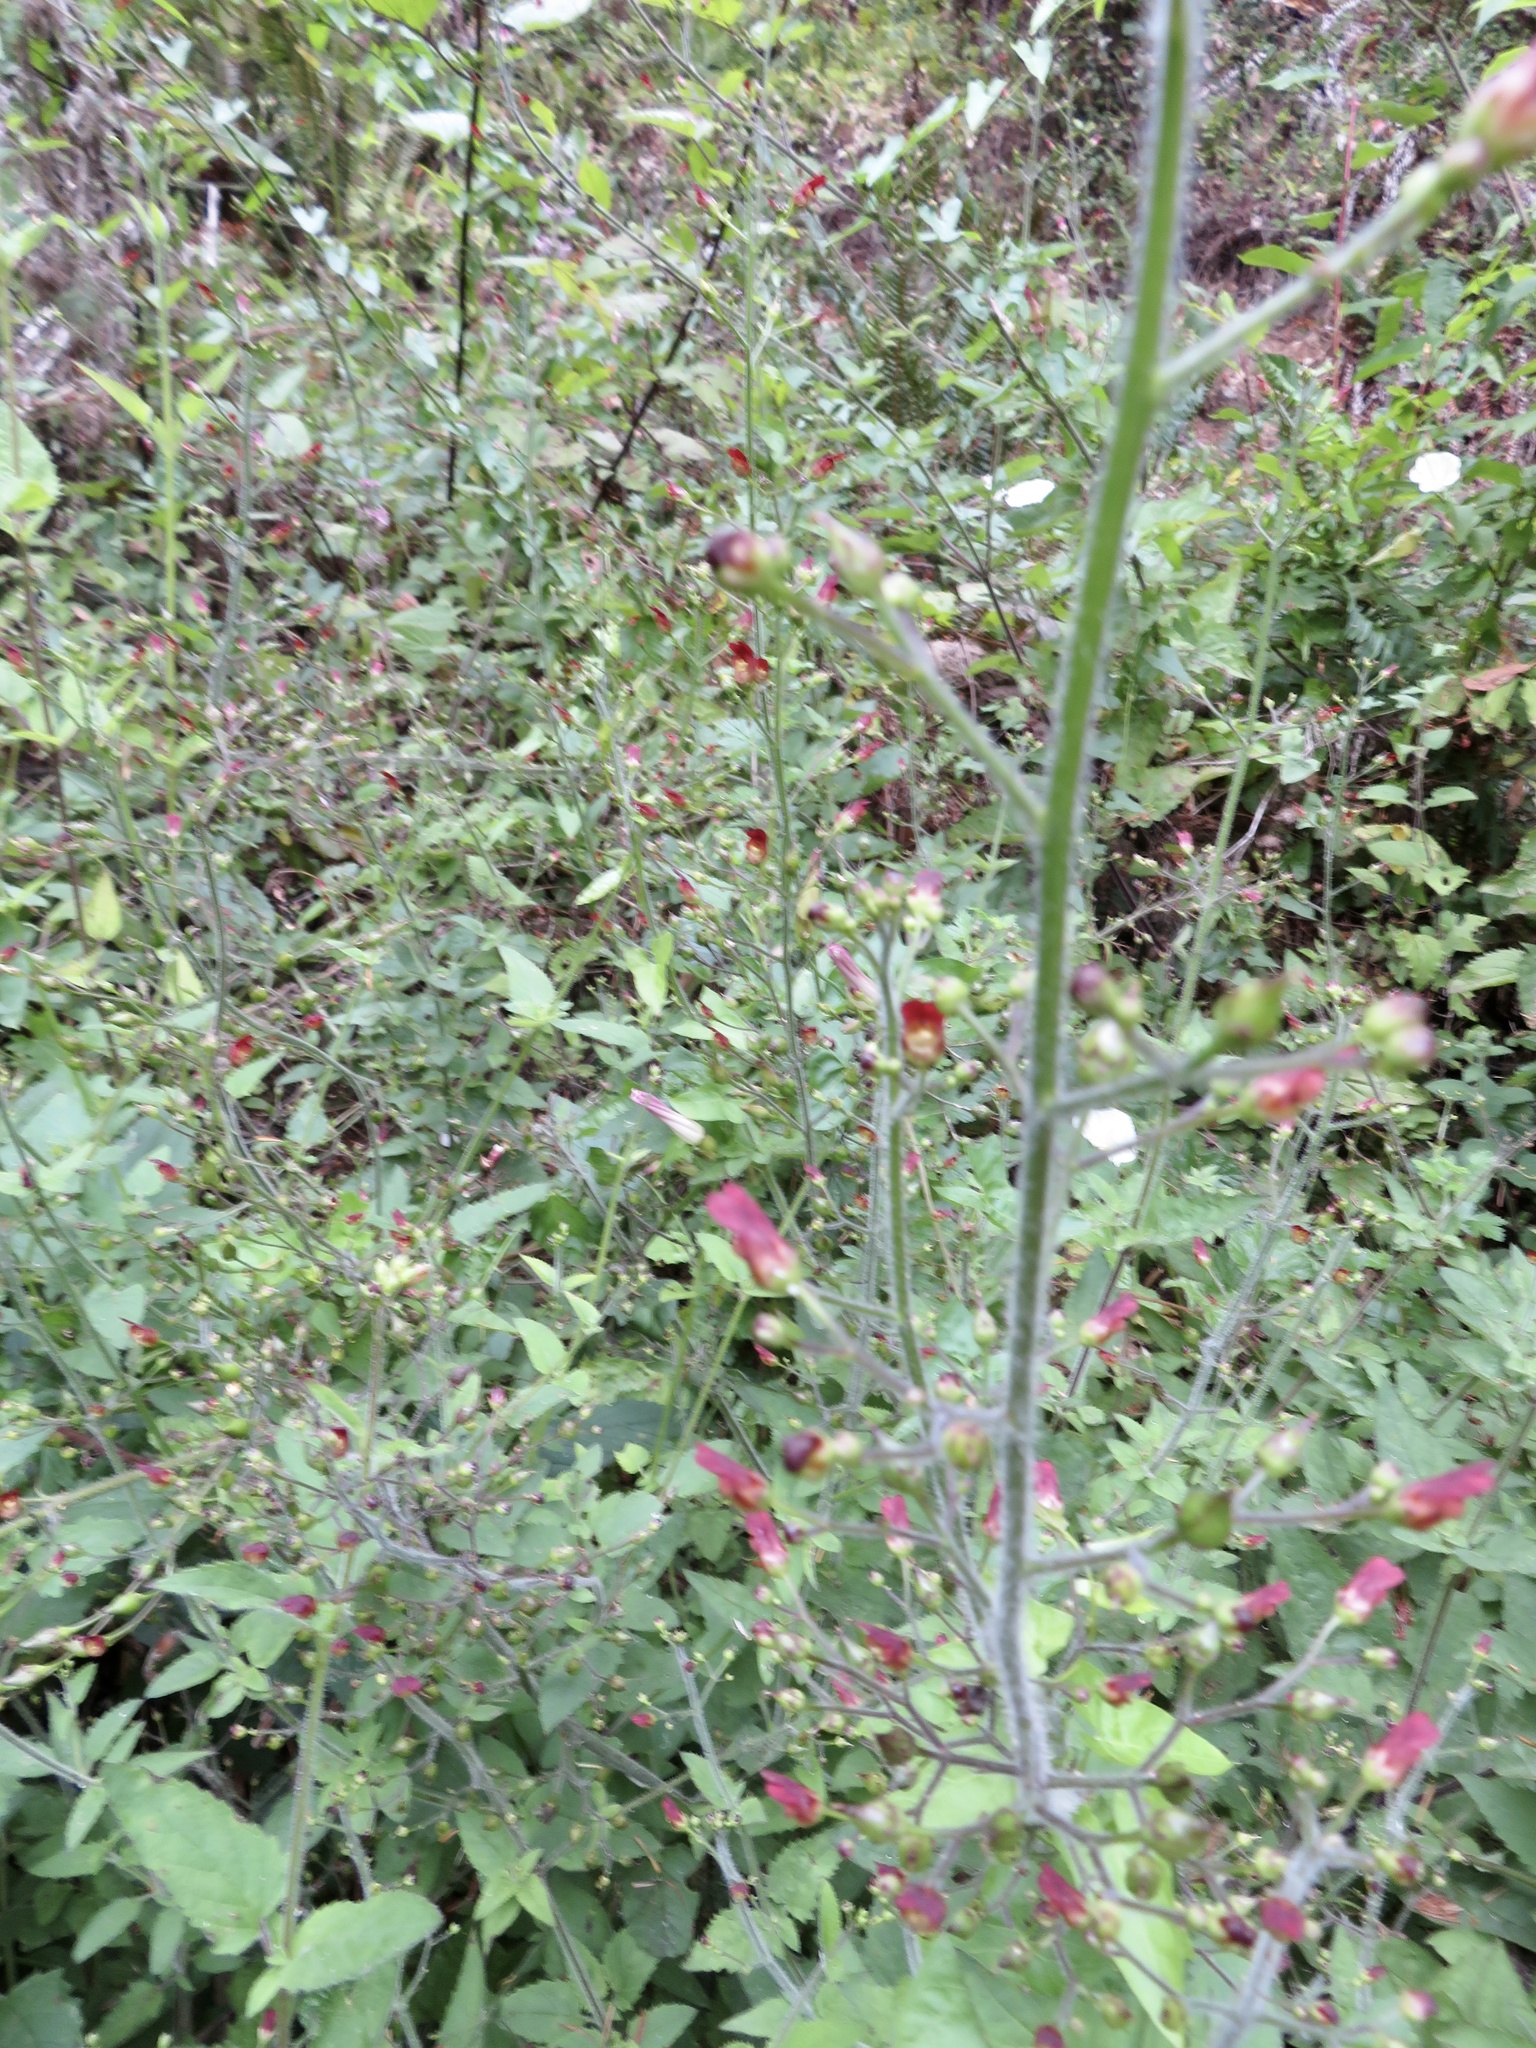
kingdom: Plantae
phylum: Tracheophyta
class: Magnoliopsida
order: Lamiales
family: Scrophulariaceae
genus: Scrophularia
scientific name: Scrophularia californica
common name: California figwort
